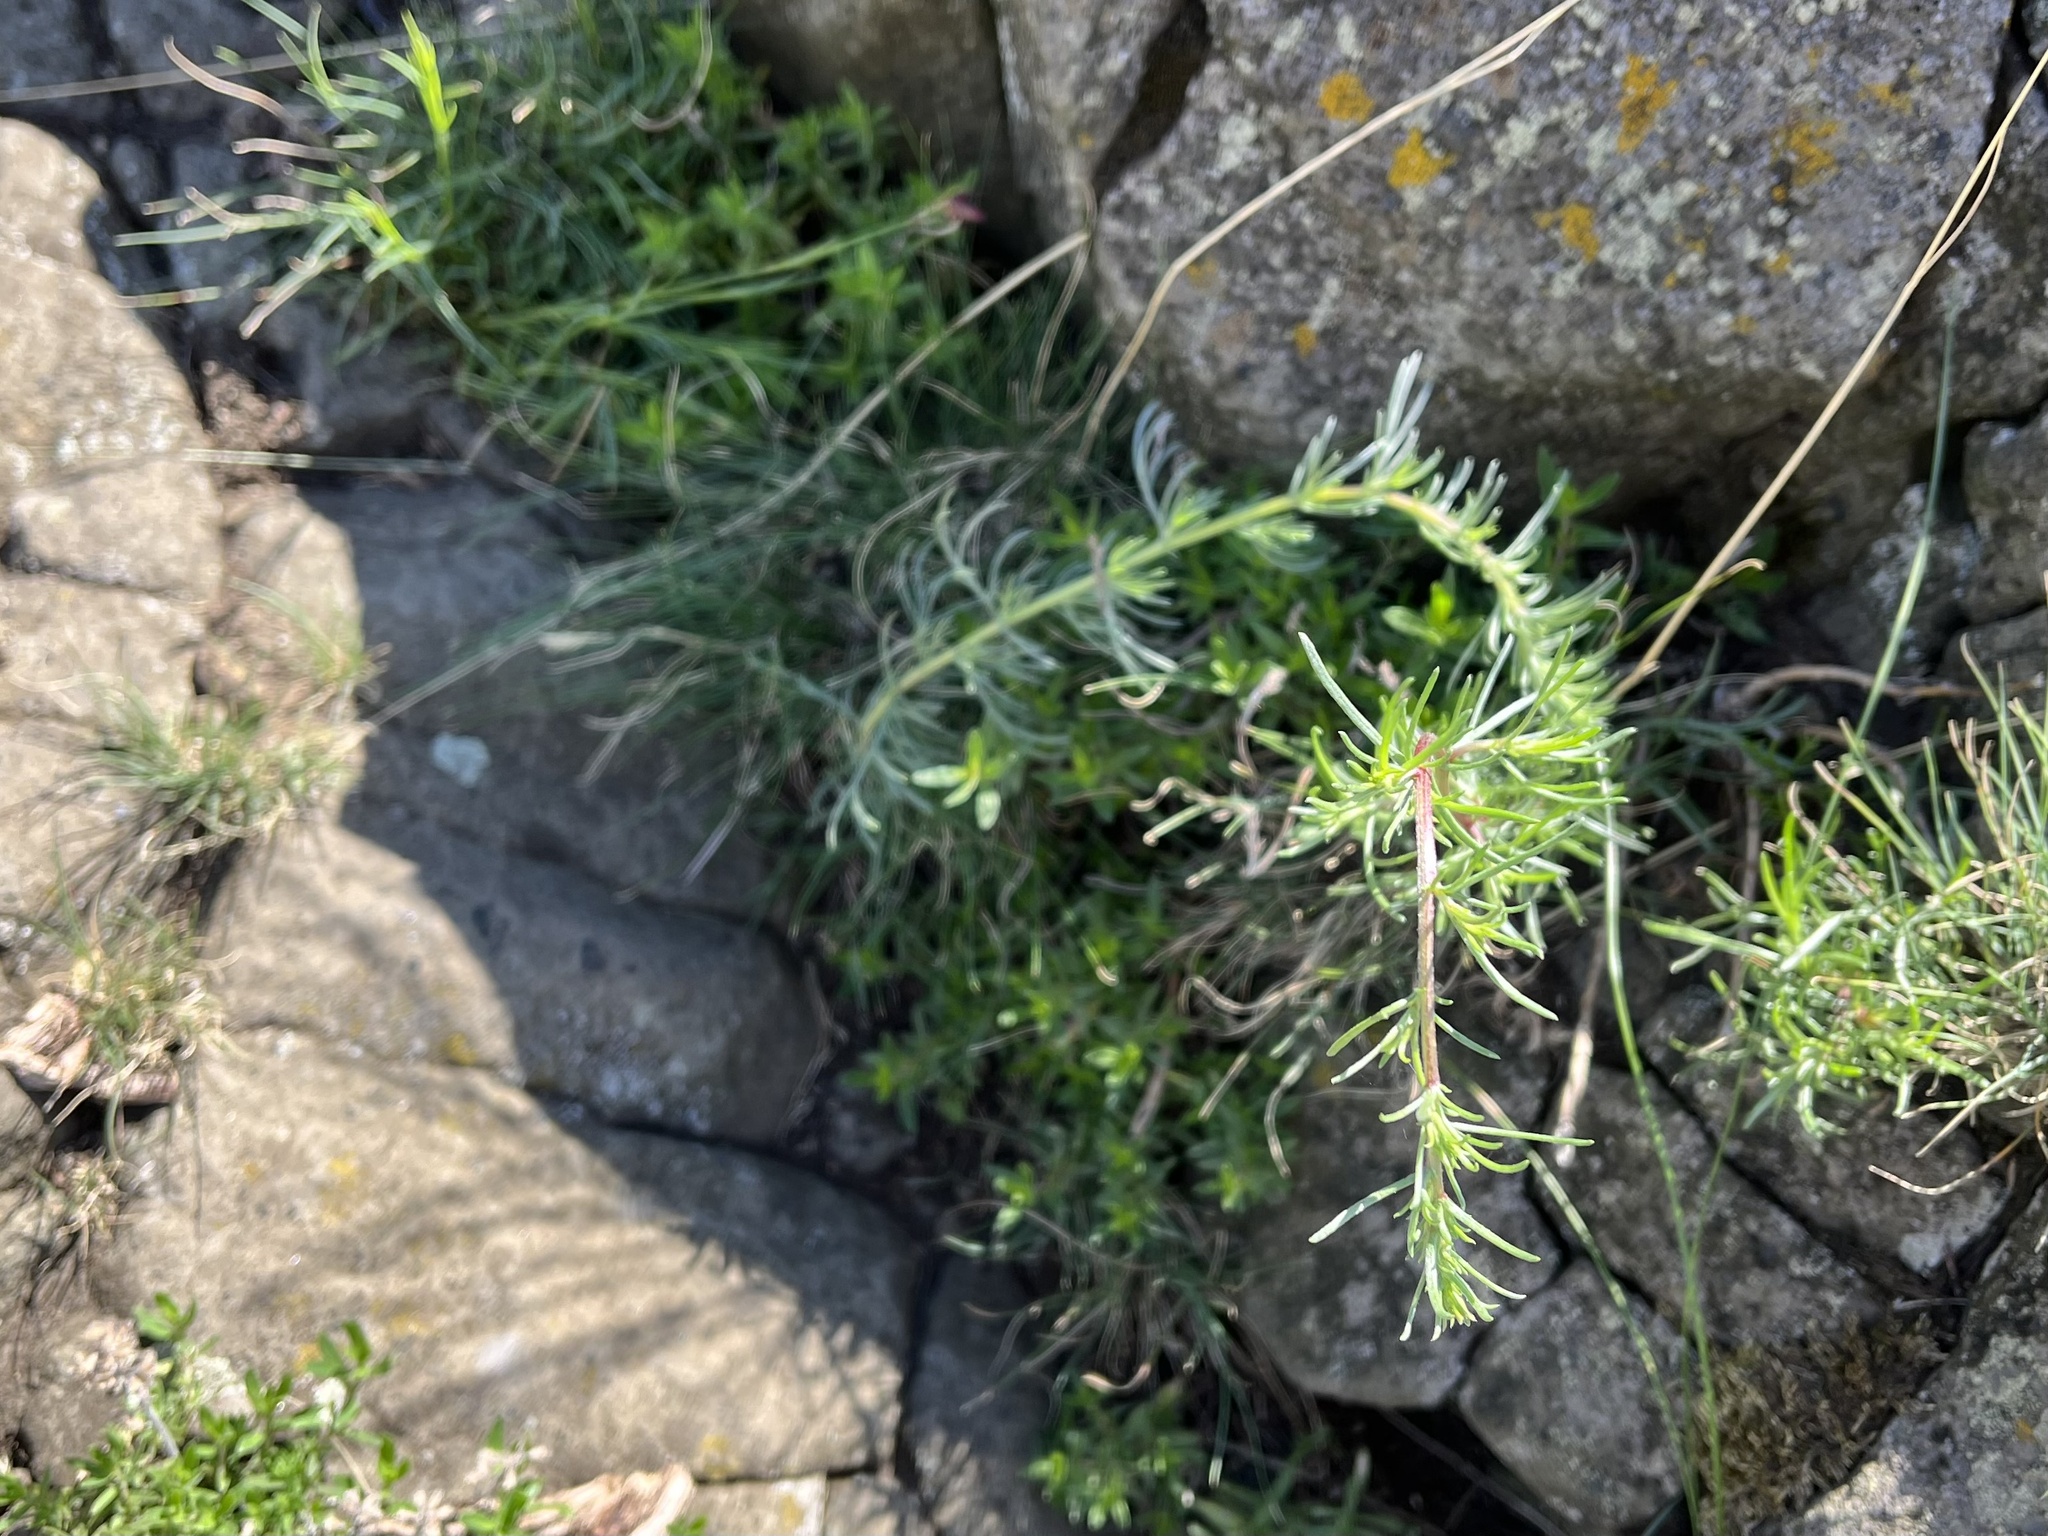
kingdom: Plantae
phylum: Tracheophyta
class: Magnoliopsida
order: Asterales
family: Asteraceae
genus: Artemisia
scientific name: Artemisia campestris
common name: Field wormwood
